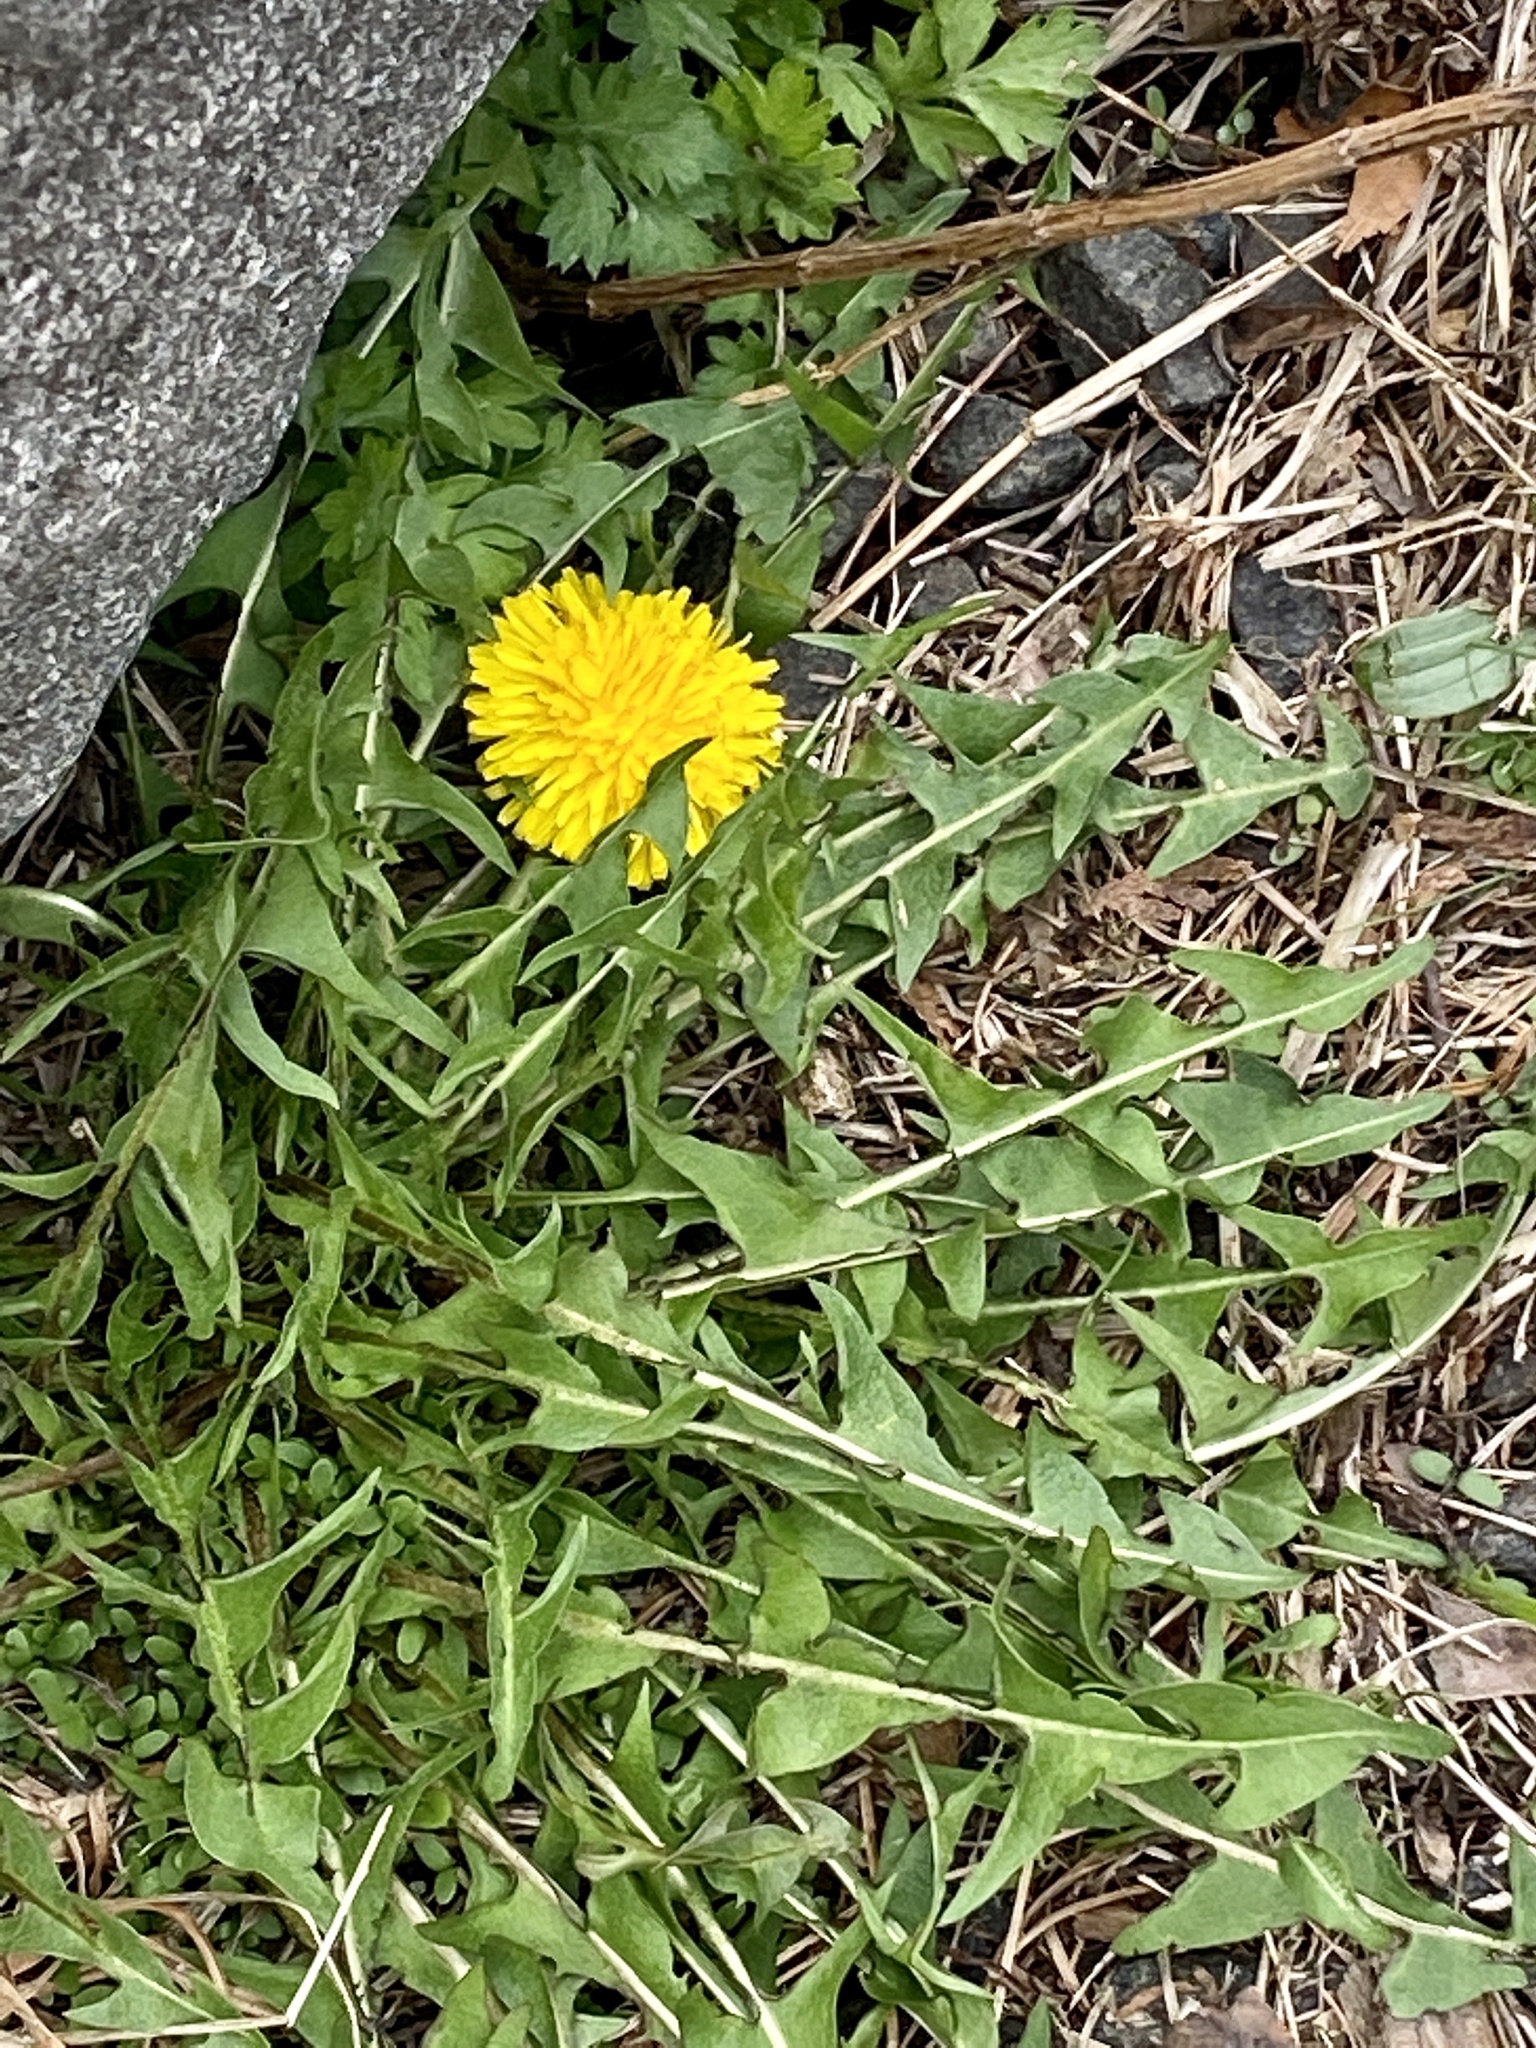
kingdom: Plantae
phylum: Tracheophyta
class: Magnoliopsida
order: Asterales
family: Asteraceae
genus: Taraxacum
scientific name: Taraxacum
